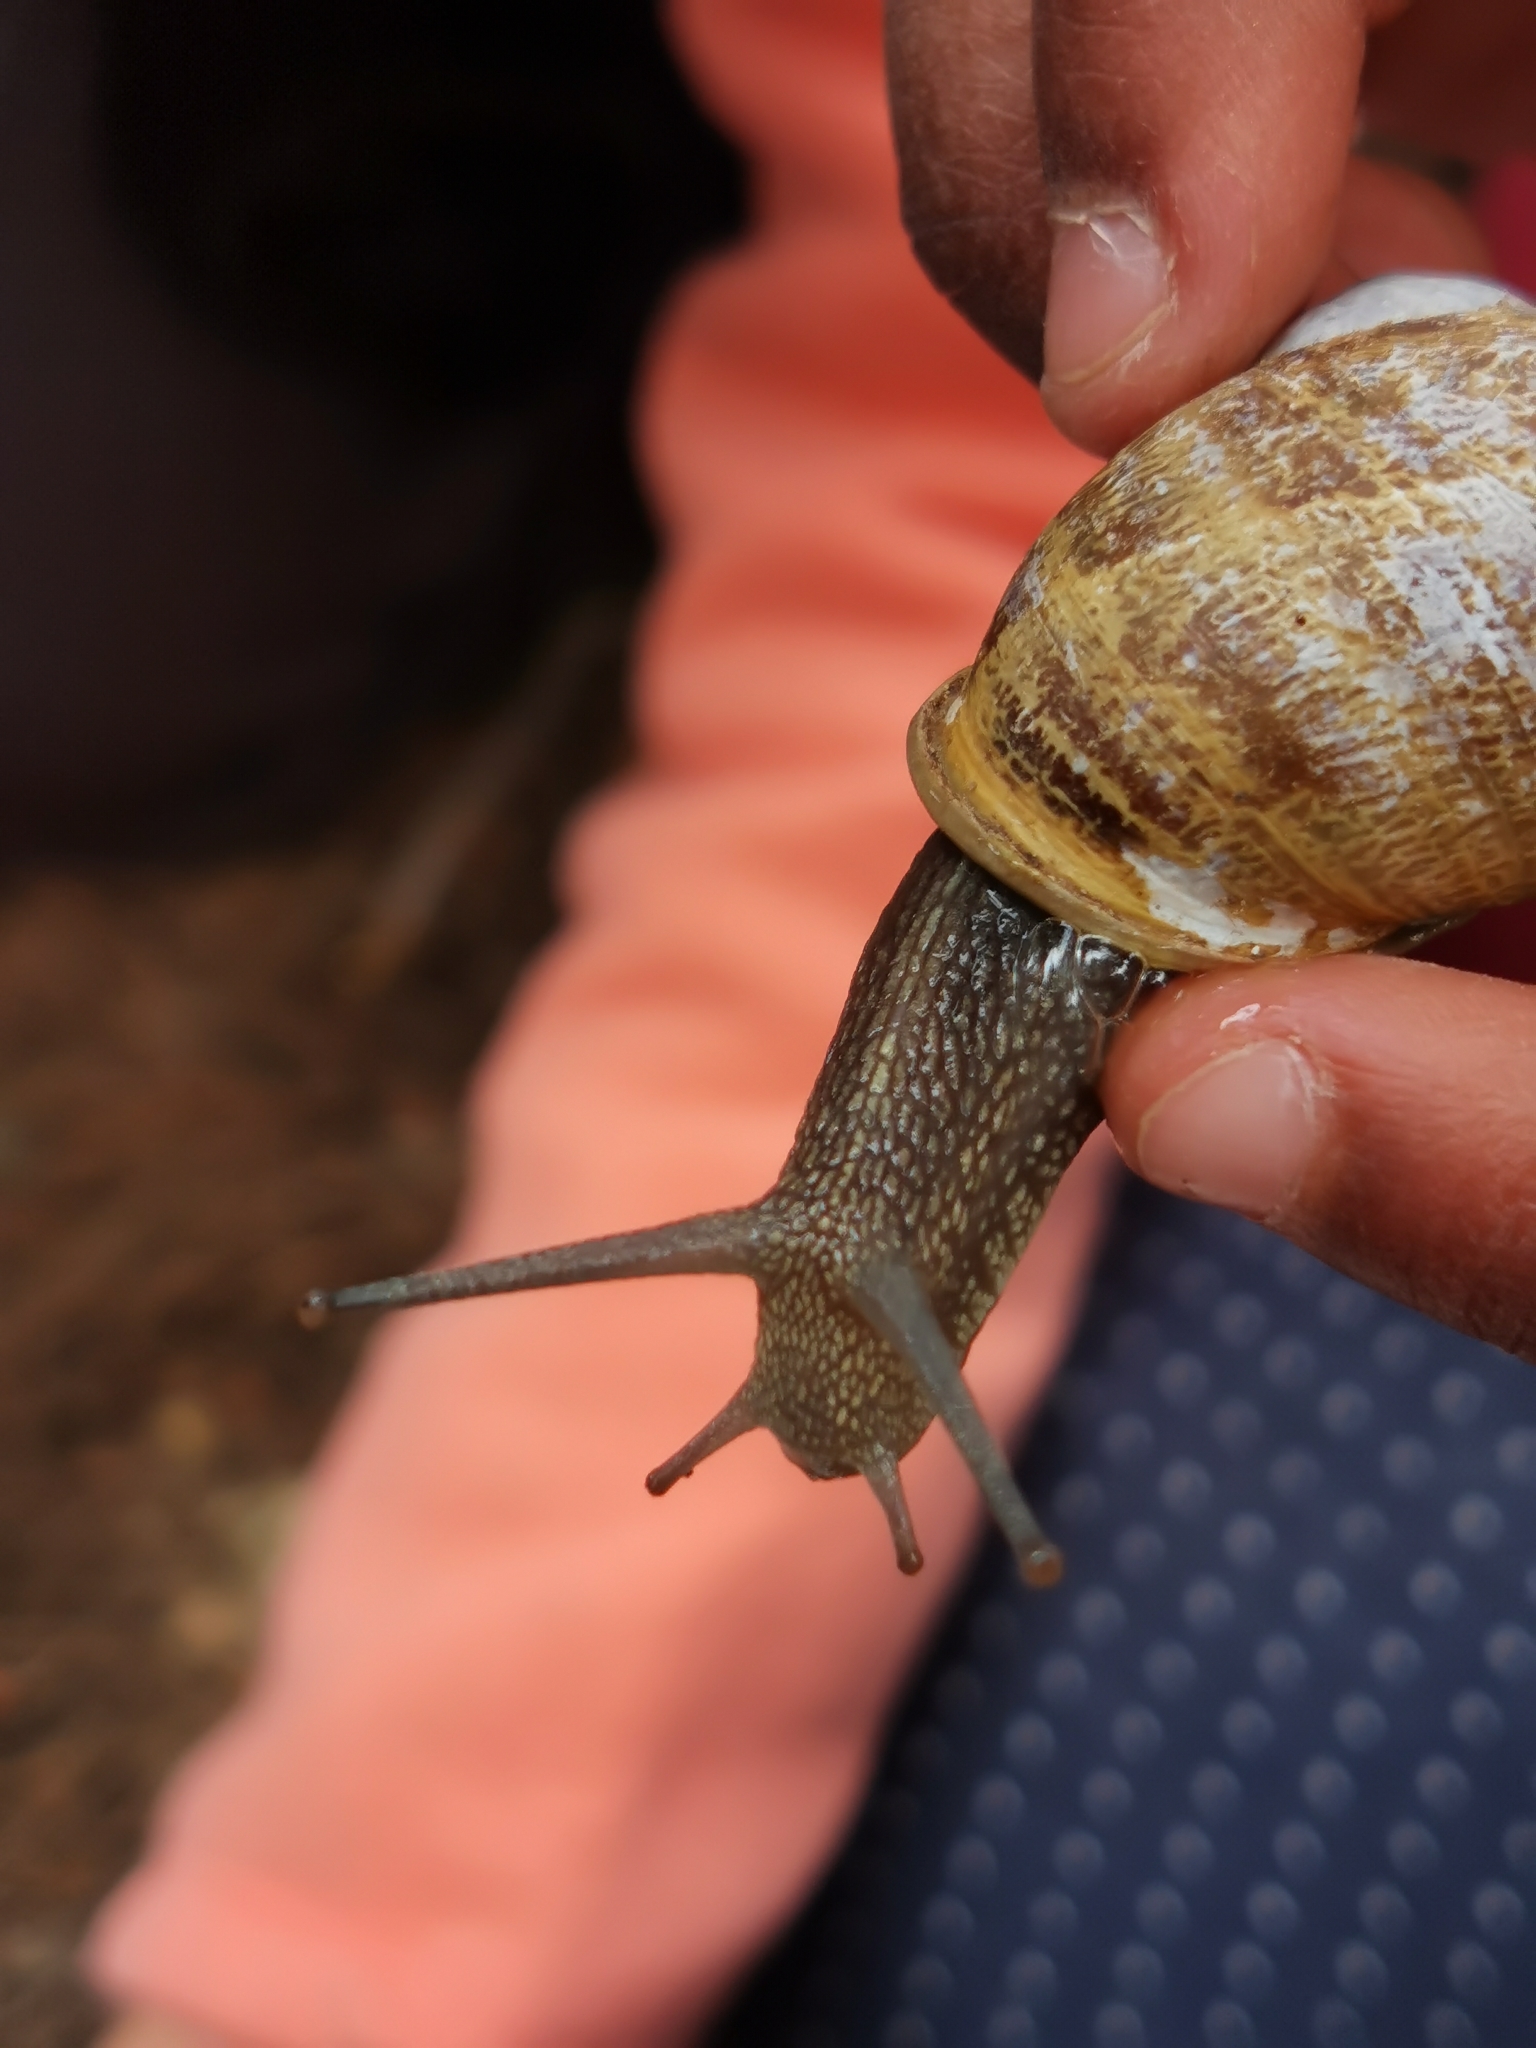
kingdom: Animalia
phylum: Mollusca
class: Gastropoda
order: Stylommatophora
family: Helicidae
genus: Cornu
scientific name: Cornu aspersum
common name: Brown garden snail
